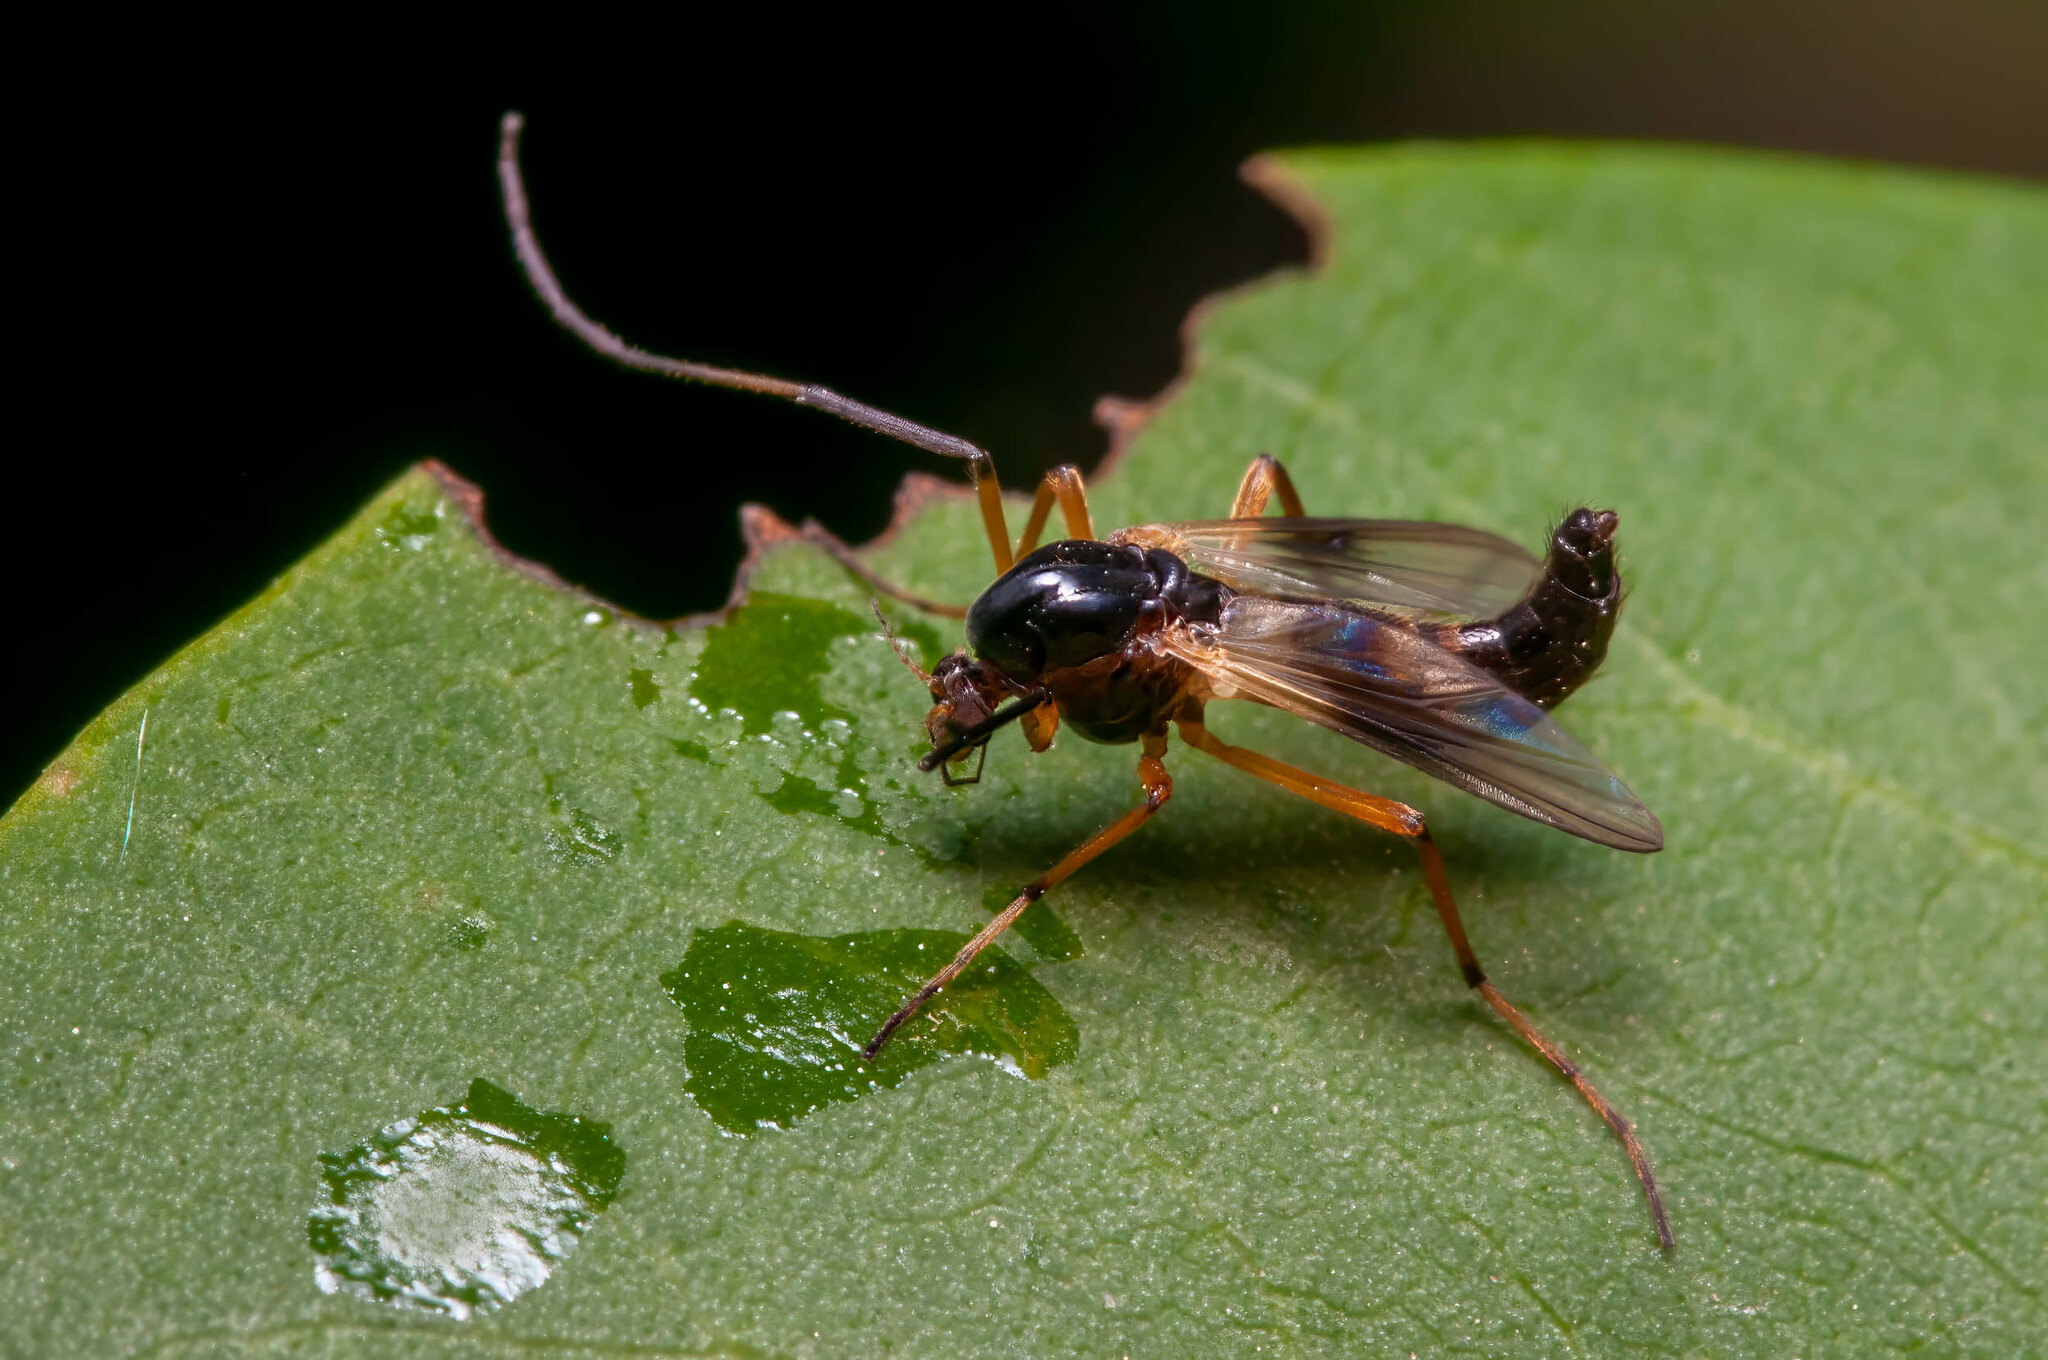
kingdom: Animalia
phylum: Arthropoda
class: Insecta
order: Diptera
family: Chironomidae
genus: Demeijerea
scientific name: Demeijerea brachialis
